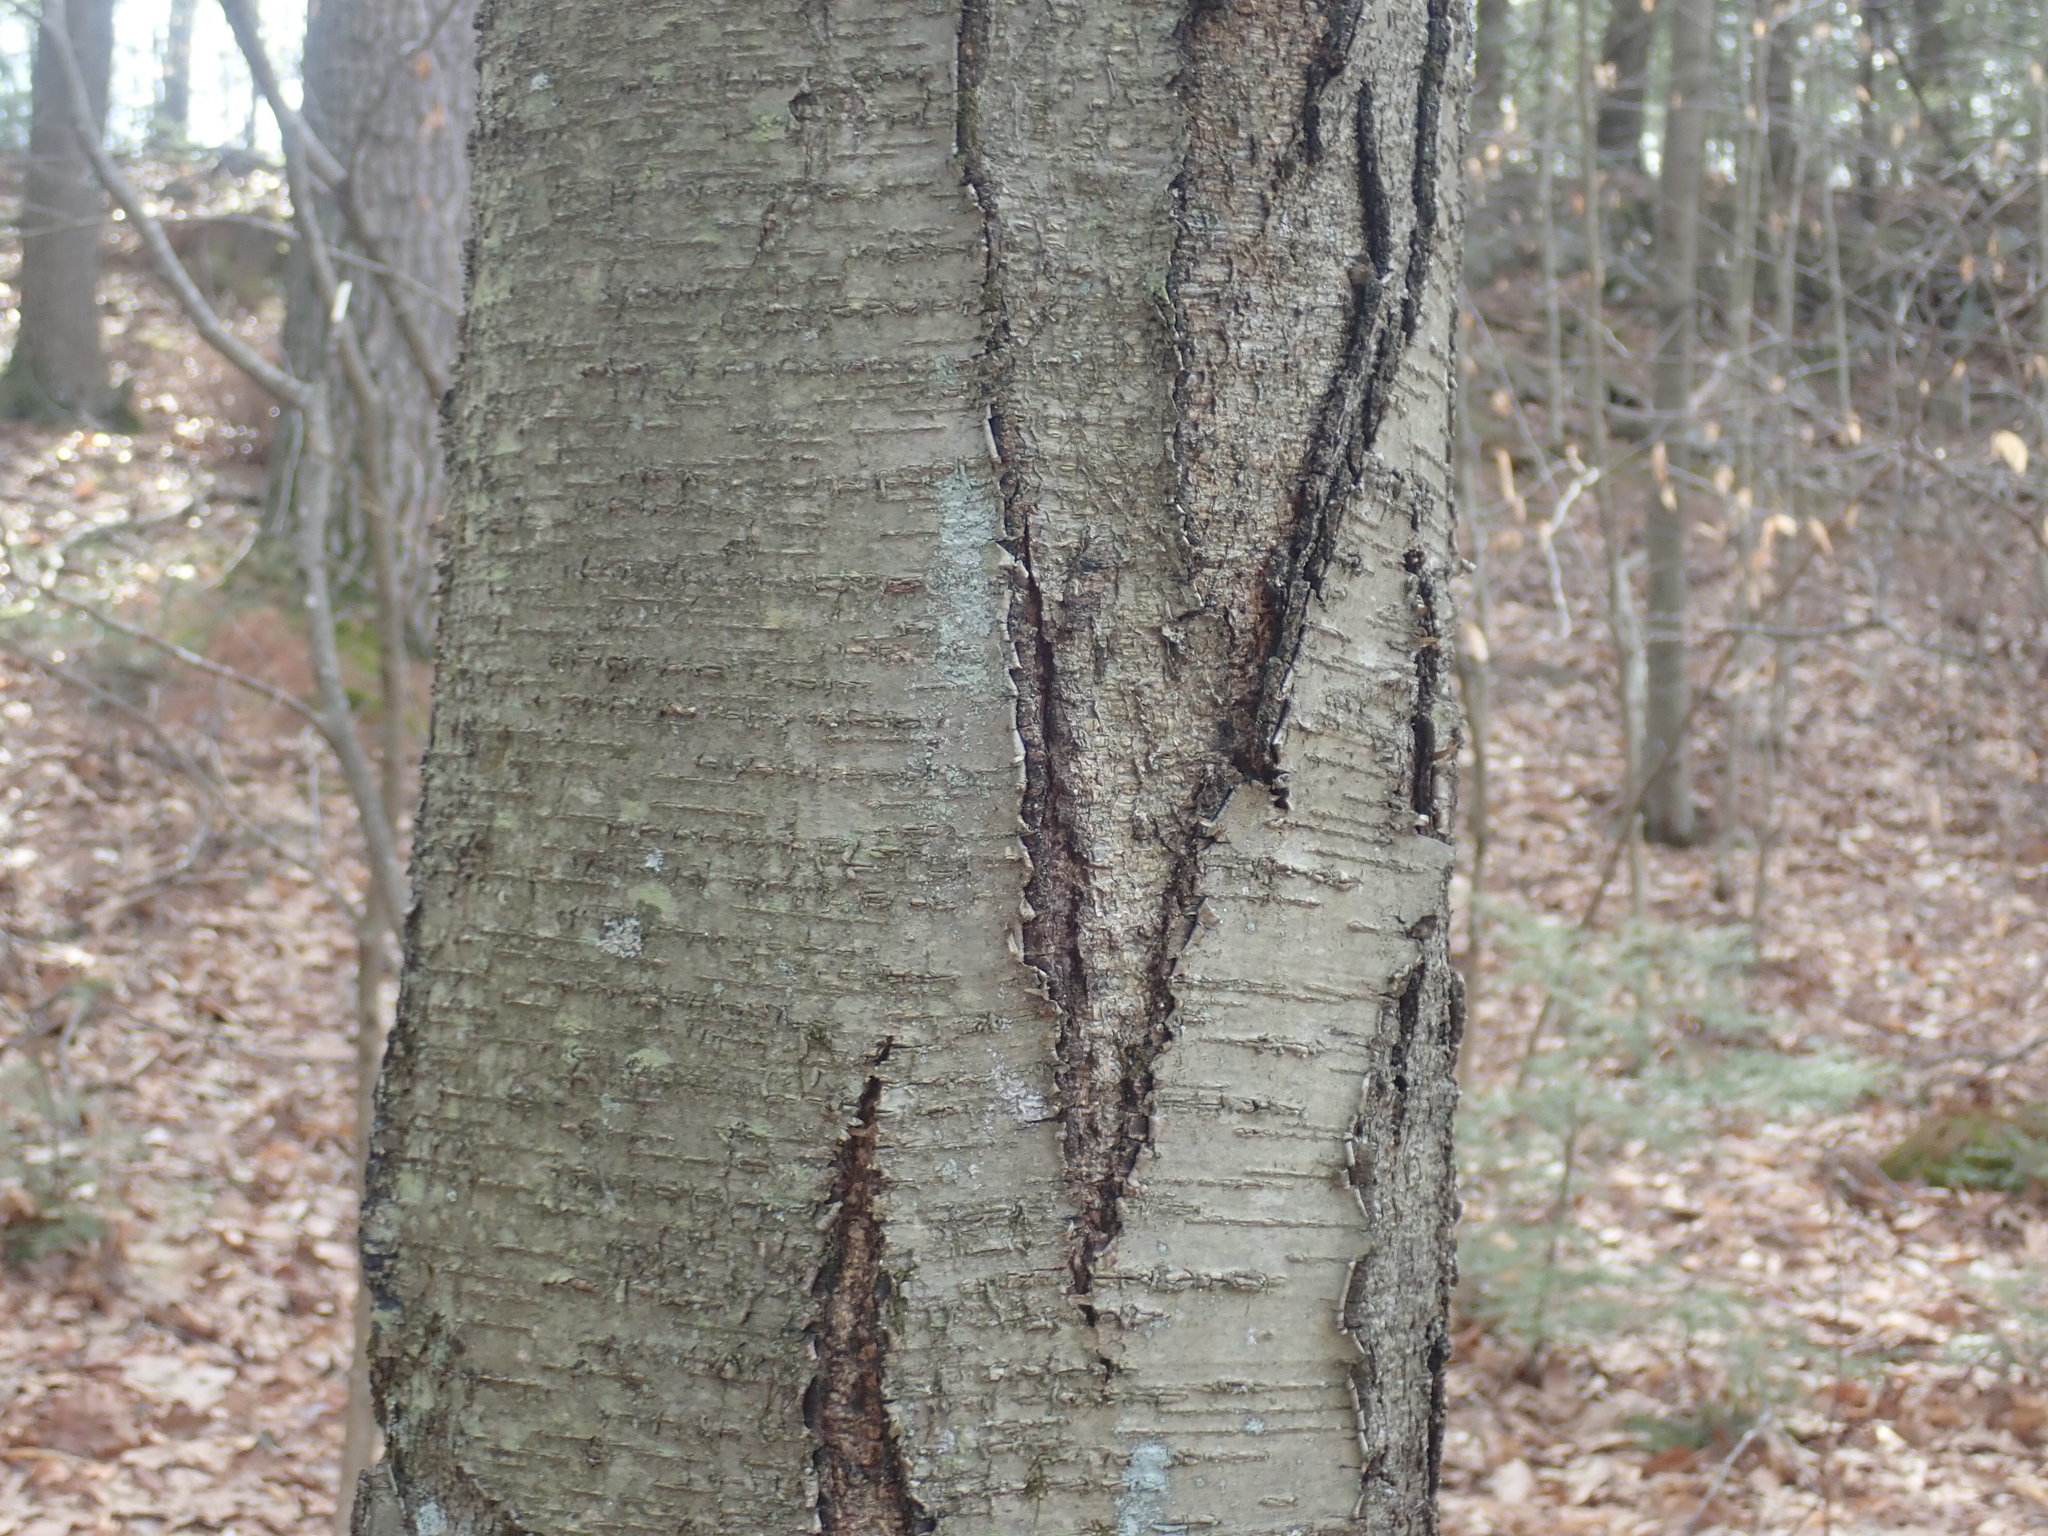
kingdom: Plantae
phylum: Tracheophyta
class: Magnoliopsida
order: Fagales
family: Betulaceae
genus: Betula
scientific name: Betula lenta
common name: Black birch
